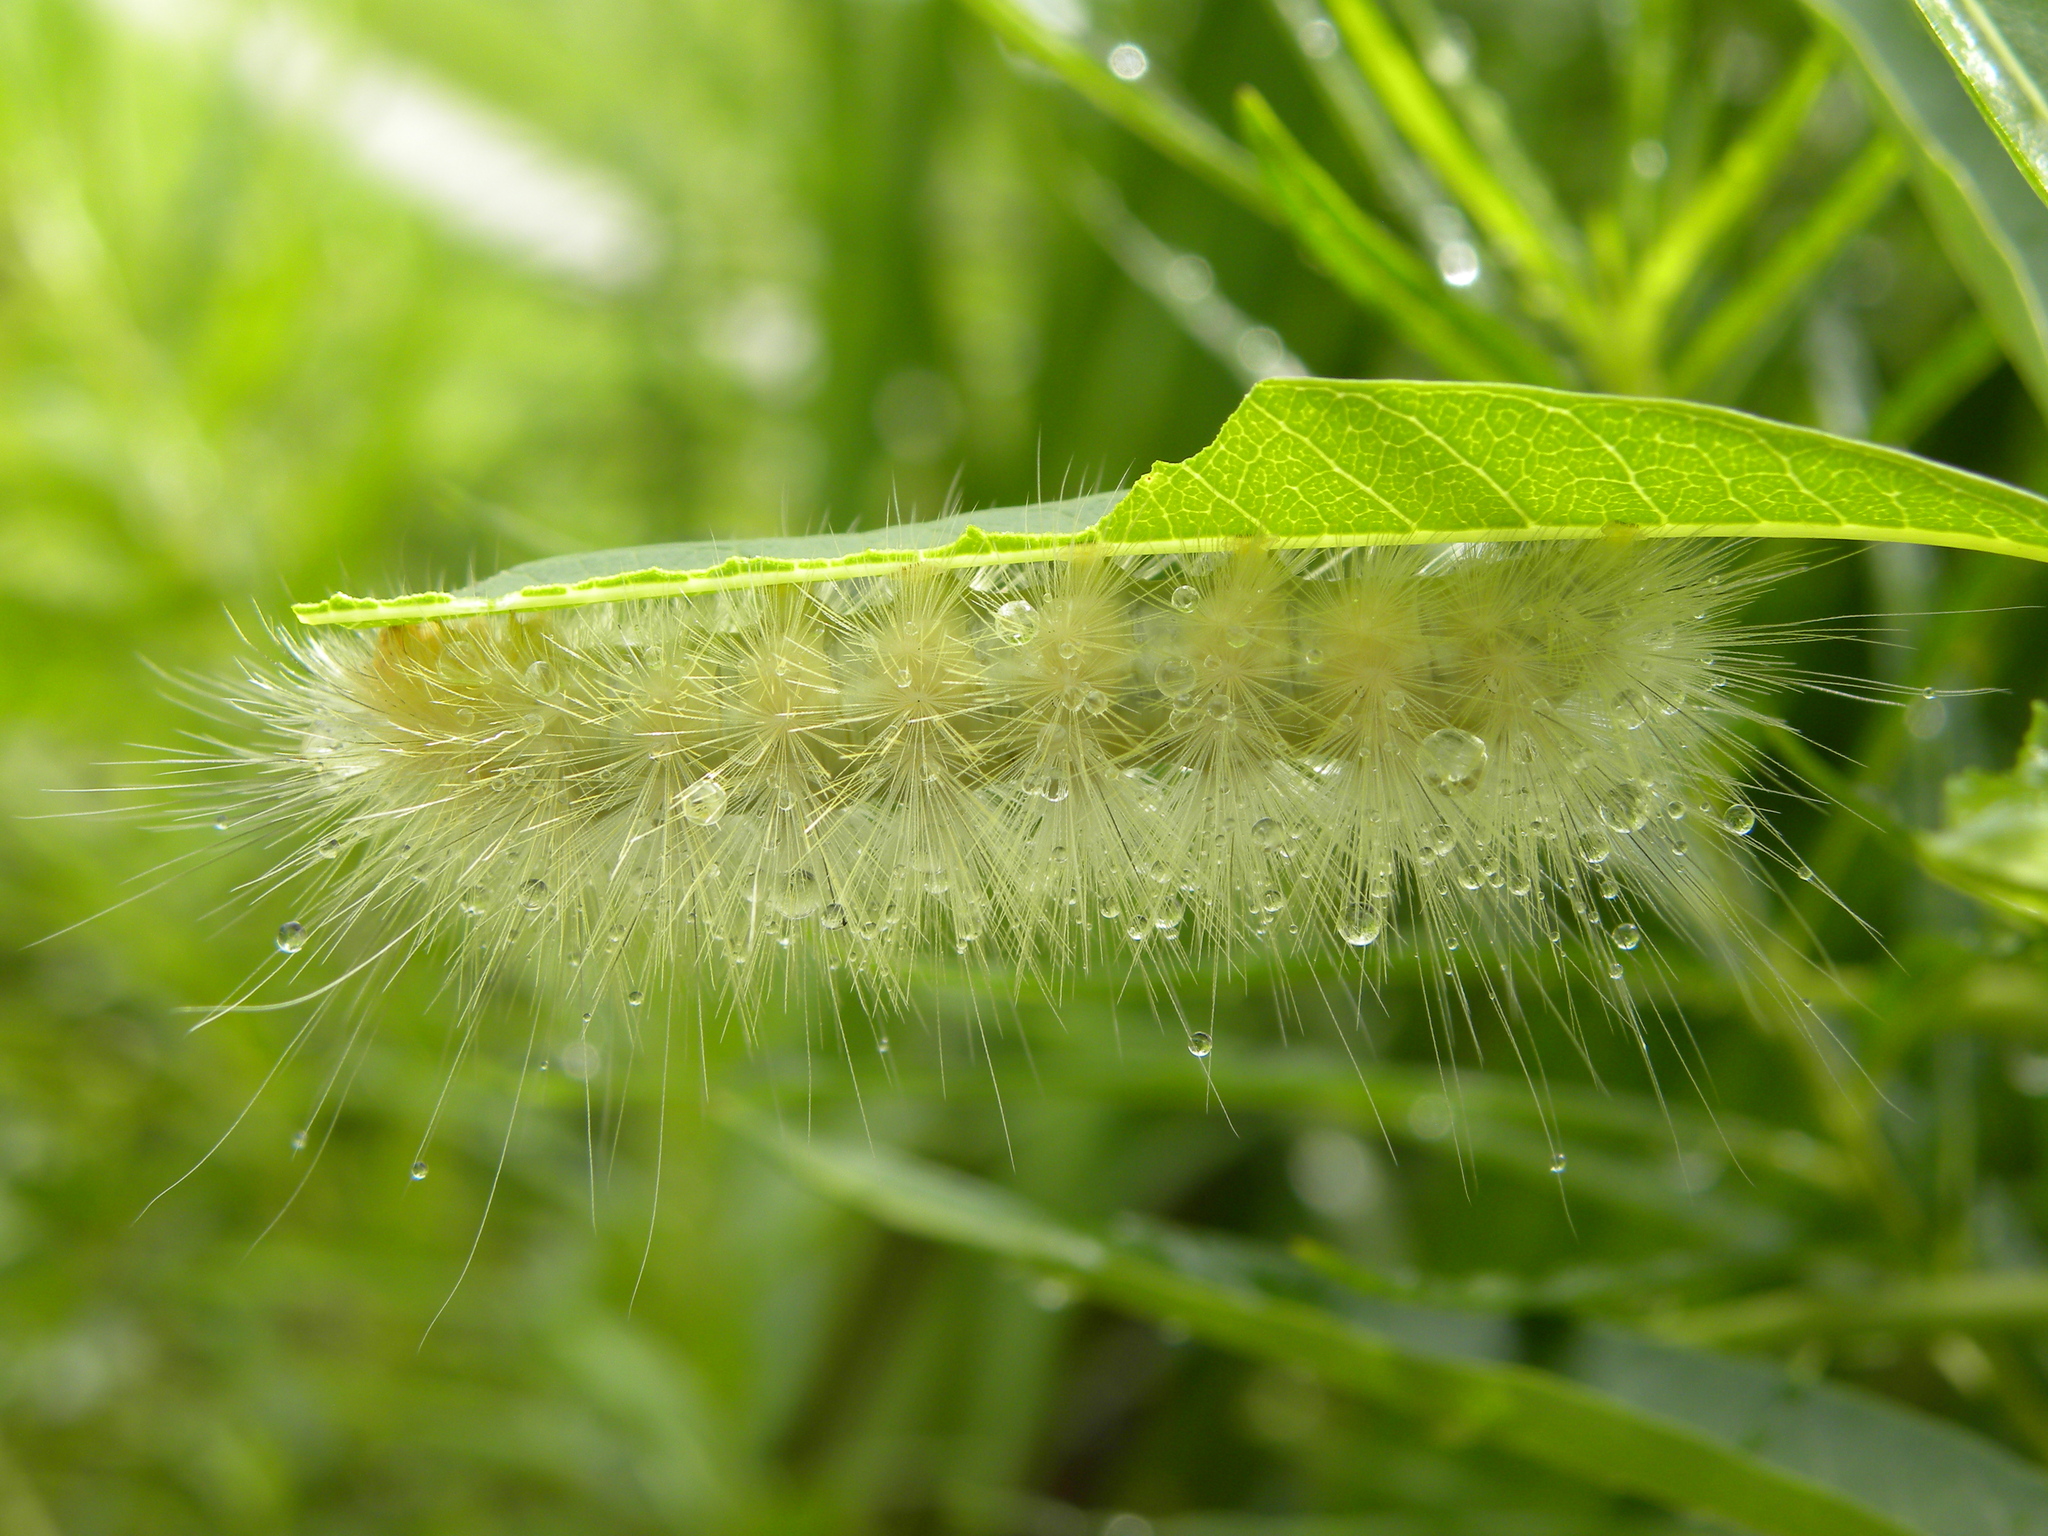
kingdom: Animalia
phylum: Arthropoda
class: Insecta
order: Lepidoptera
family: Erebidae
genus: Spilosoma
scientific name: Spilosoma virginica
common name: Virginia tiger moth
